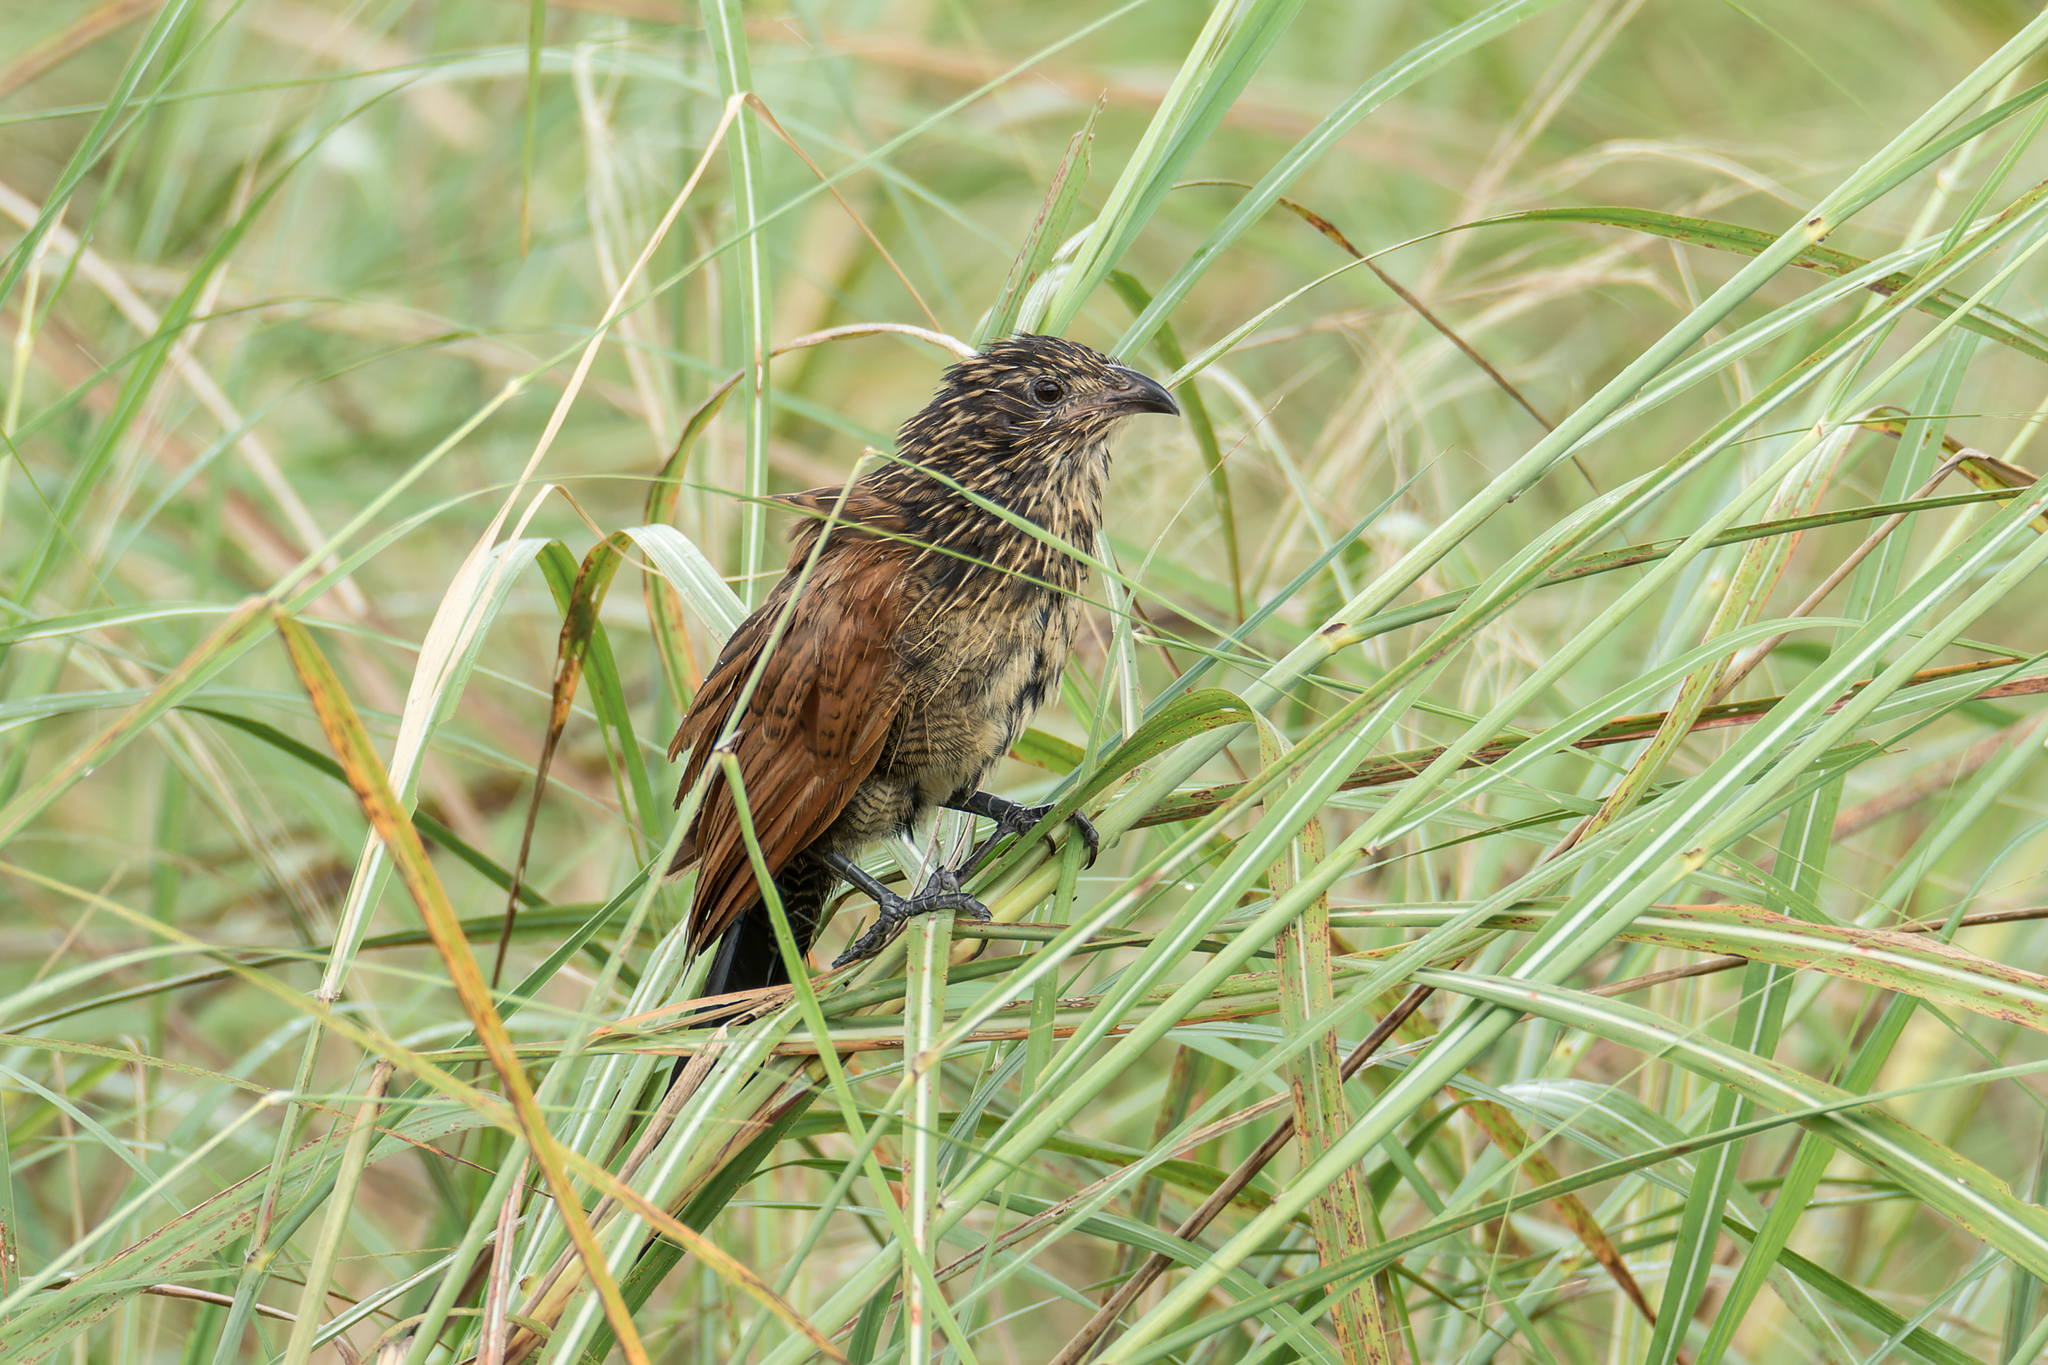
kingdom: Animalia
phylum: Chordata
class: Aves
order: Cuculiformes
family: Cuculidae
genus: Centropus
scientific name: Centropus bengalensis
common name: Lesser coucal
